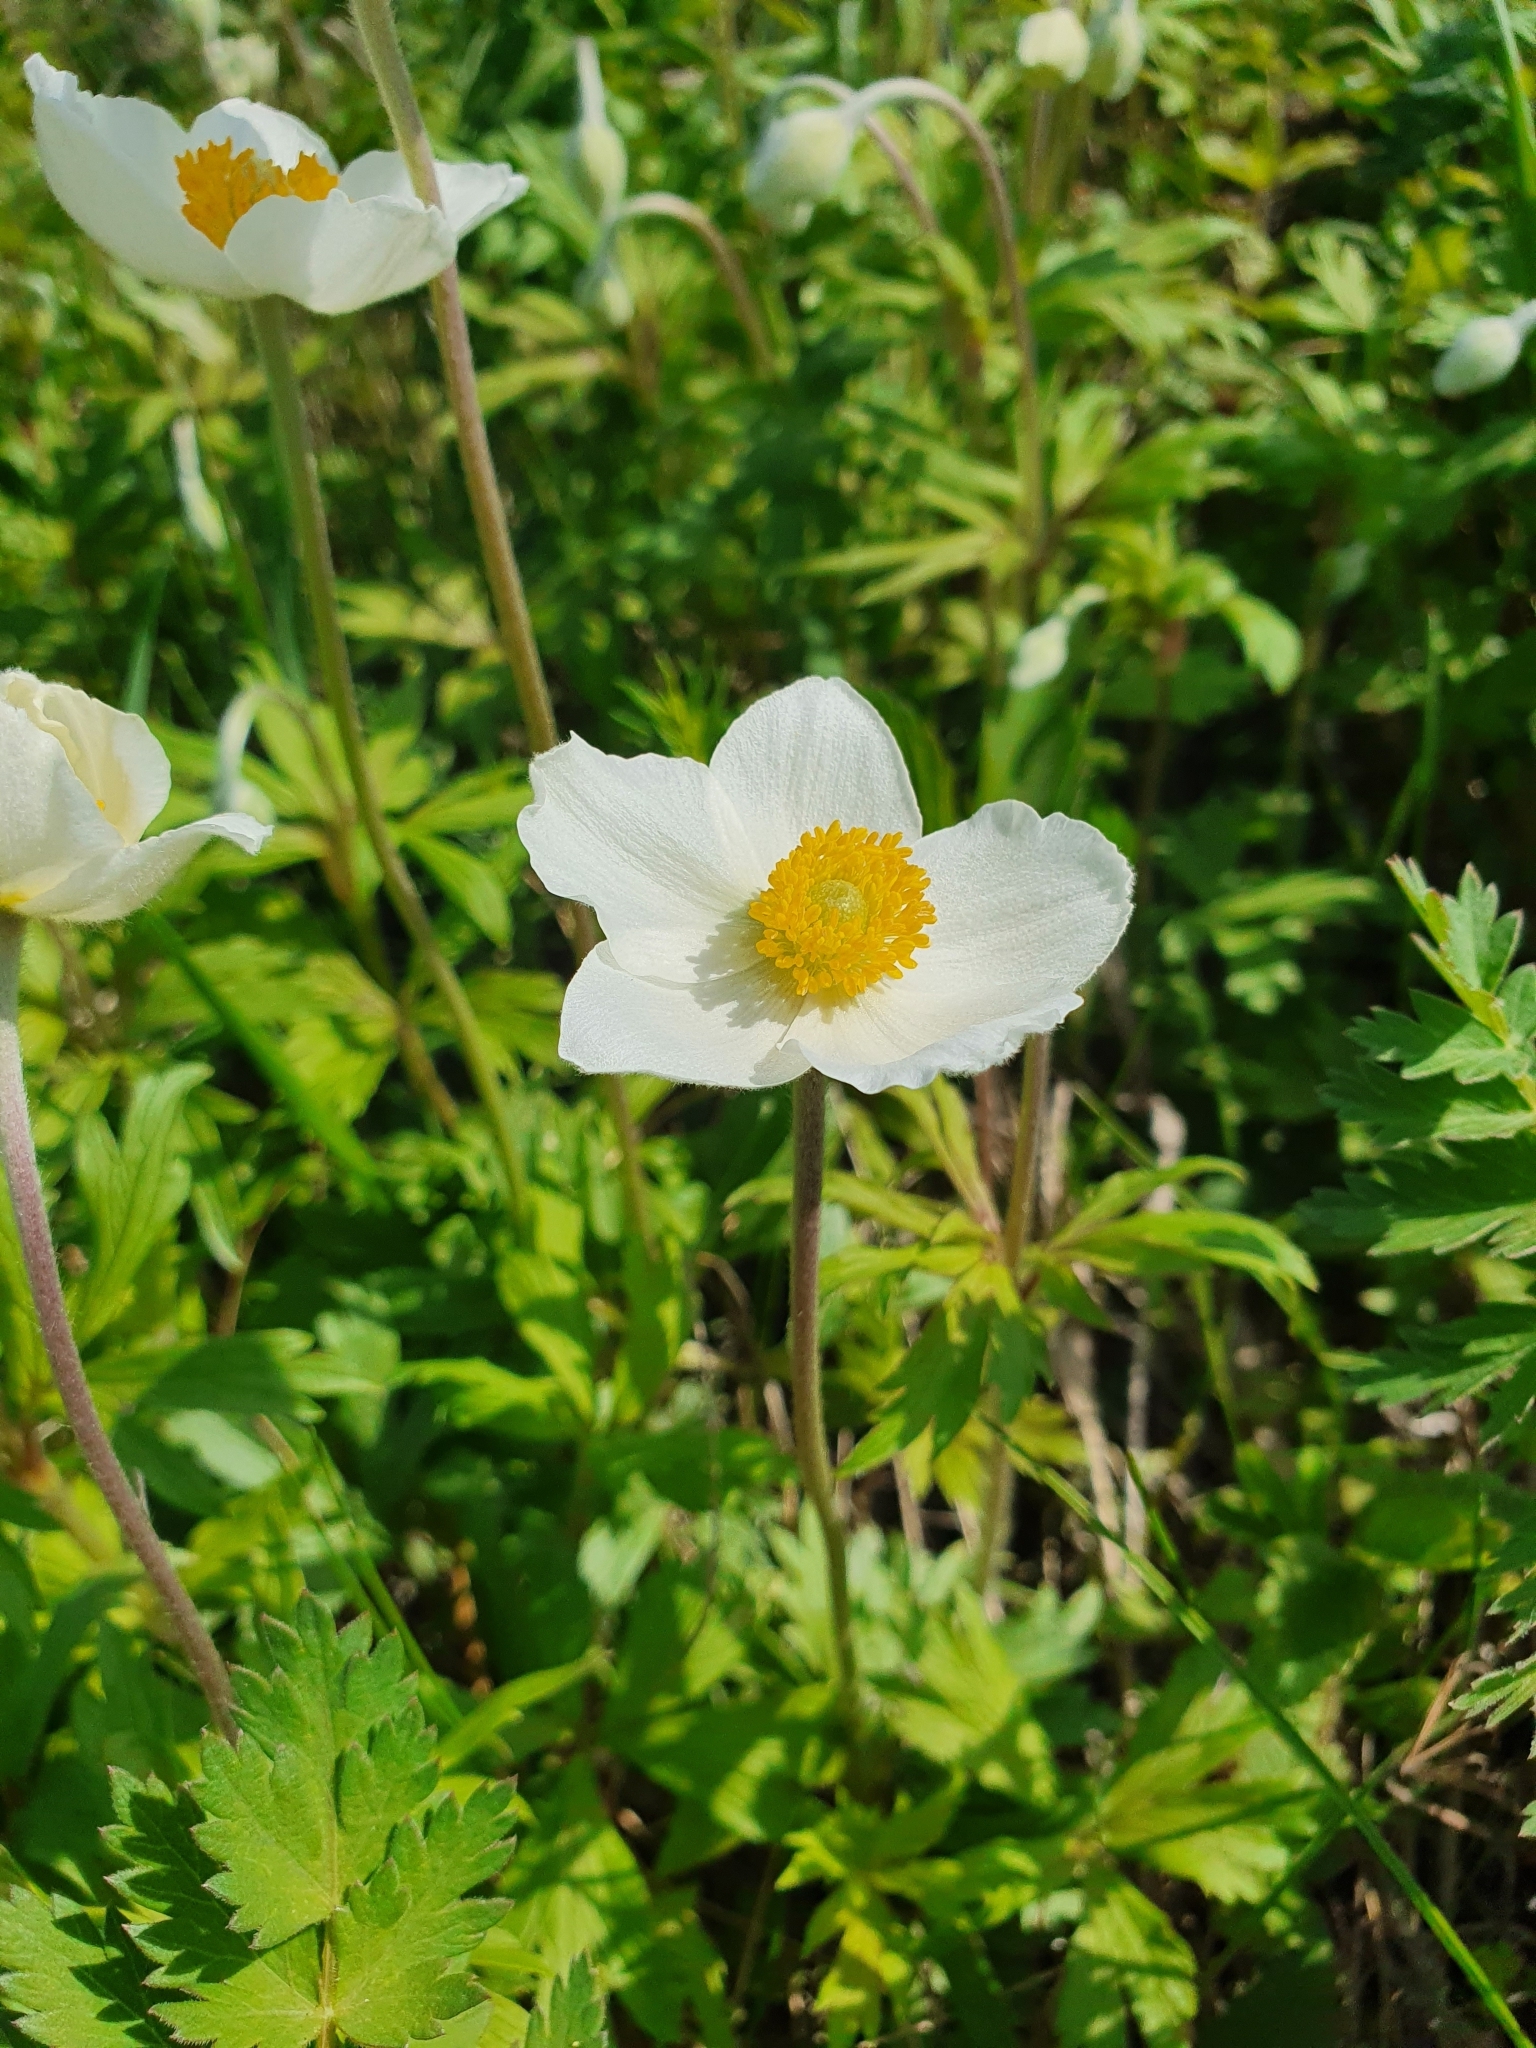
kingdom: Plantae
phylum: Tracheophyta
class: Magnoliopsida
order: Ranunculales
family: Ranunculaceae
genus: Anemone
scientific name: Anemone sylvestris
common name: Snowdrop anemone
